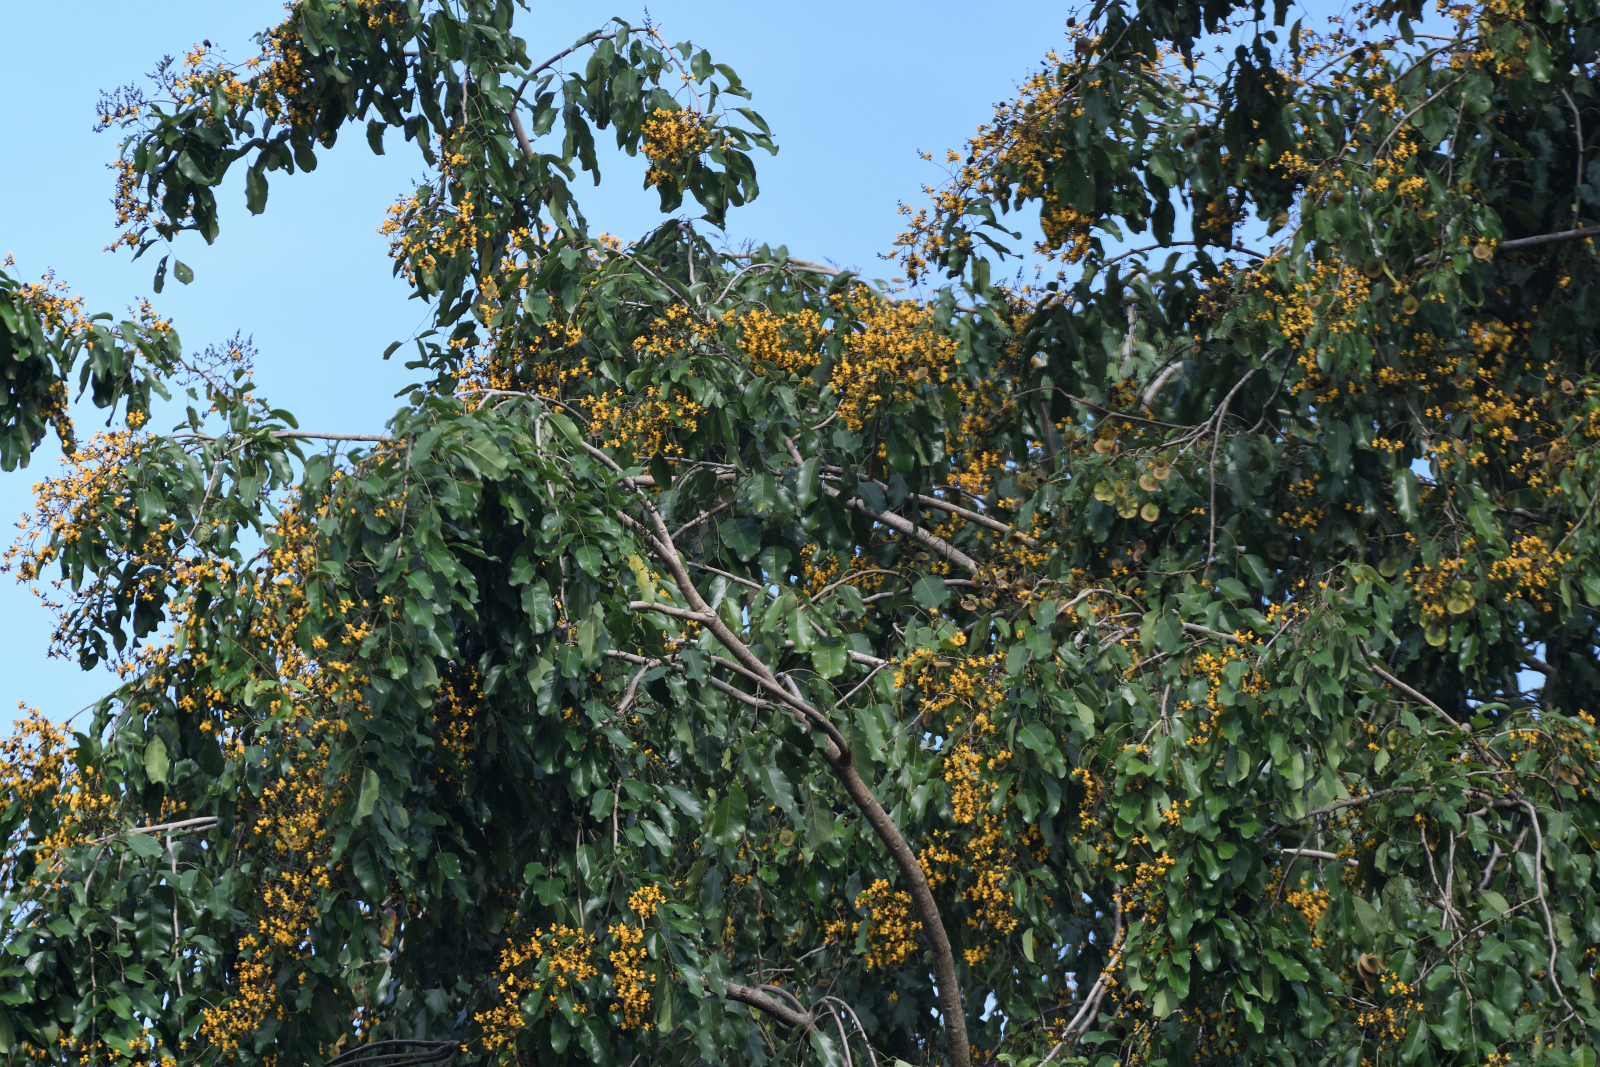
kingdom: Plantae
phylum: Tracheophyta
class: Magnoliopsida
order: Fabales
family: Fabaceae
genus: Pterocarpus
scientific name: Pterocarpus indicus
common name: Burmese rosewood
